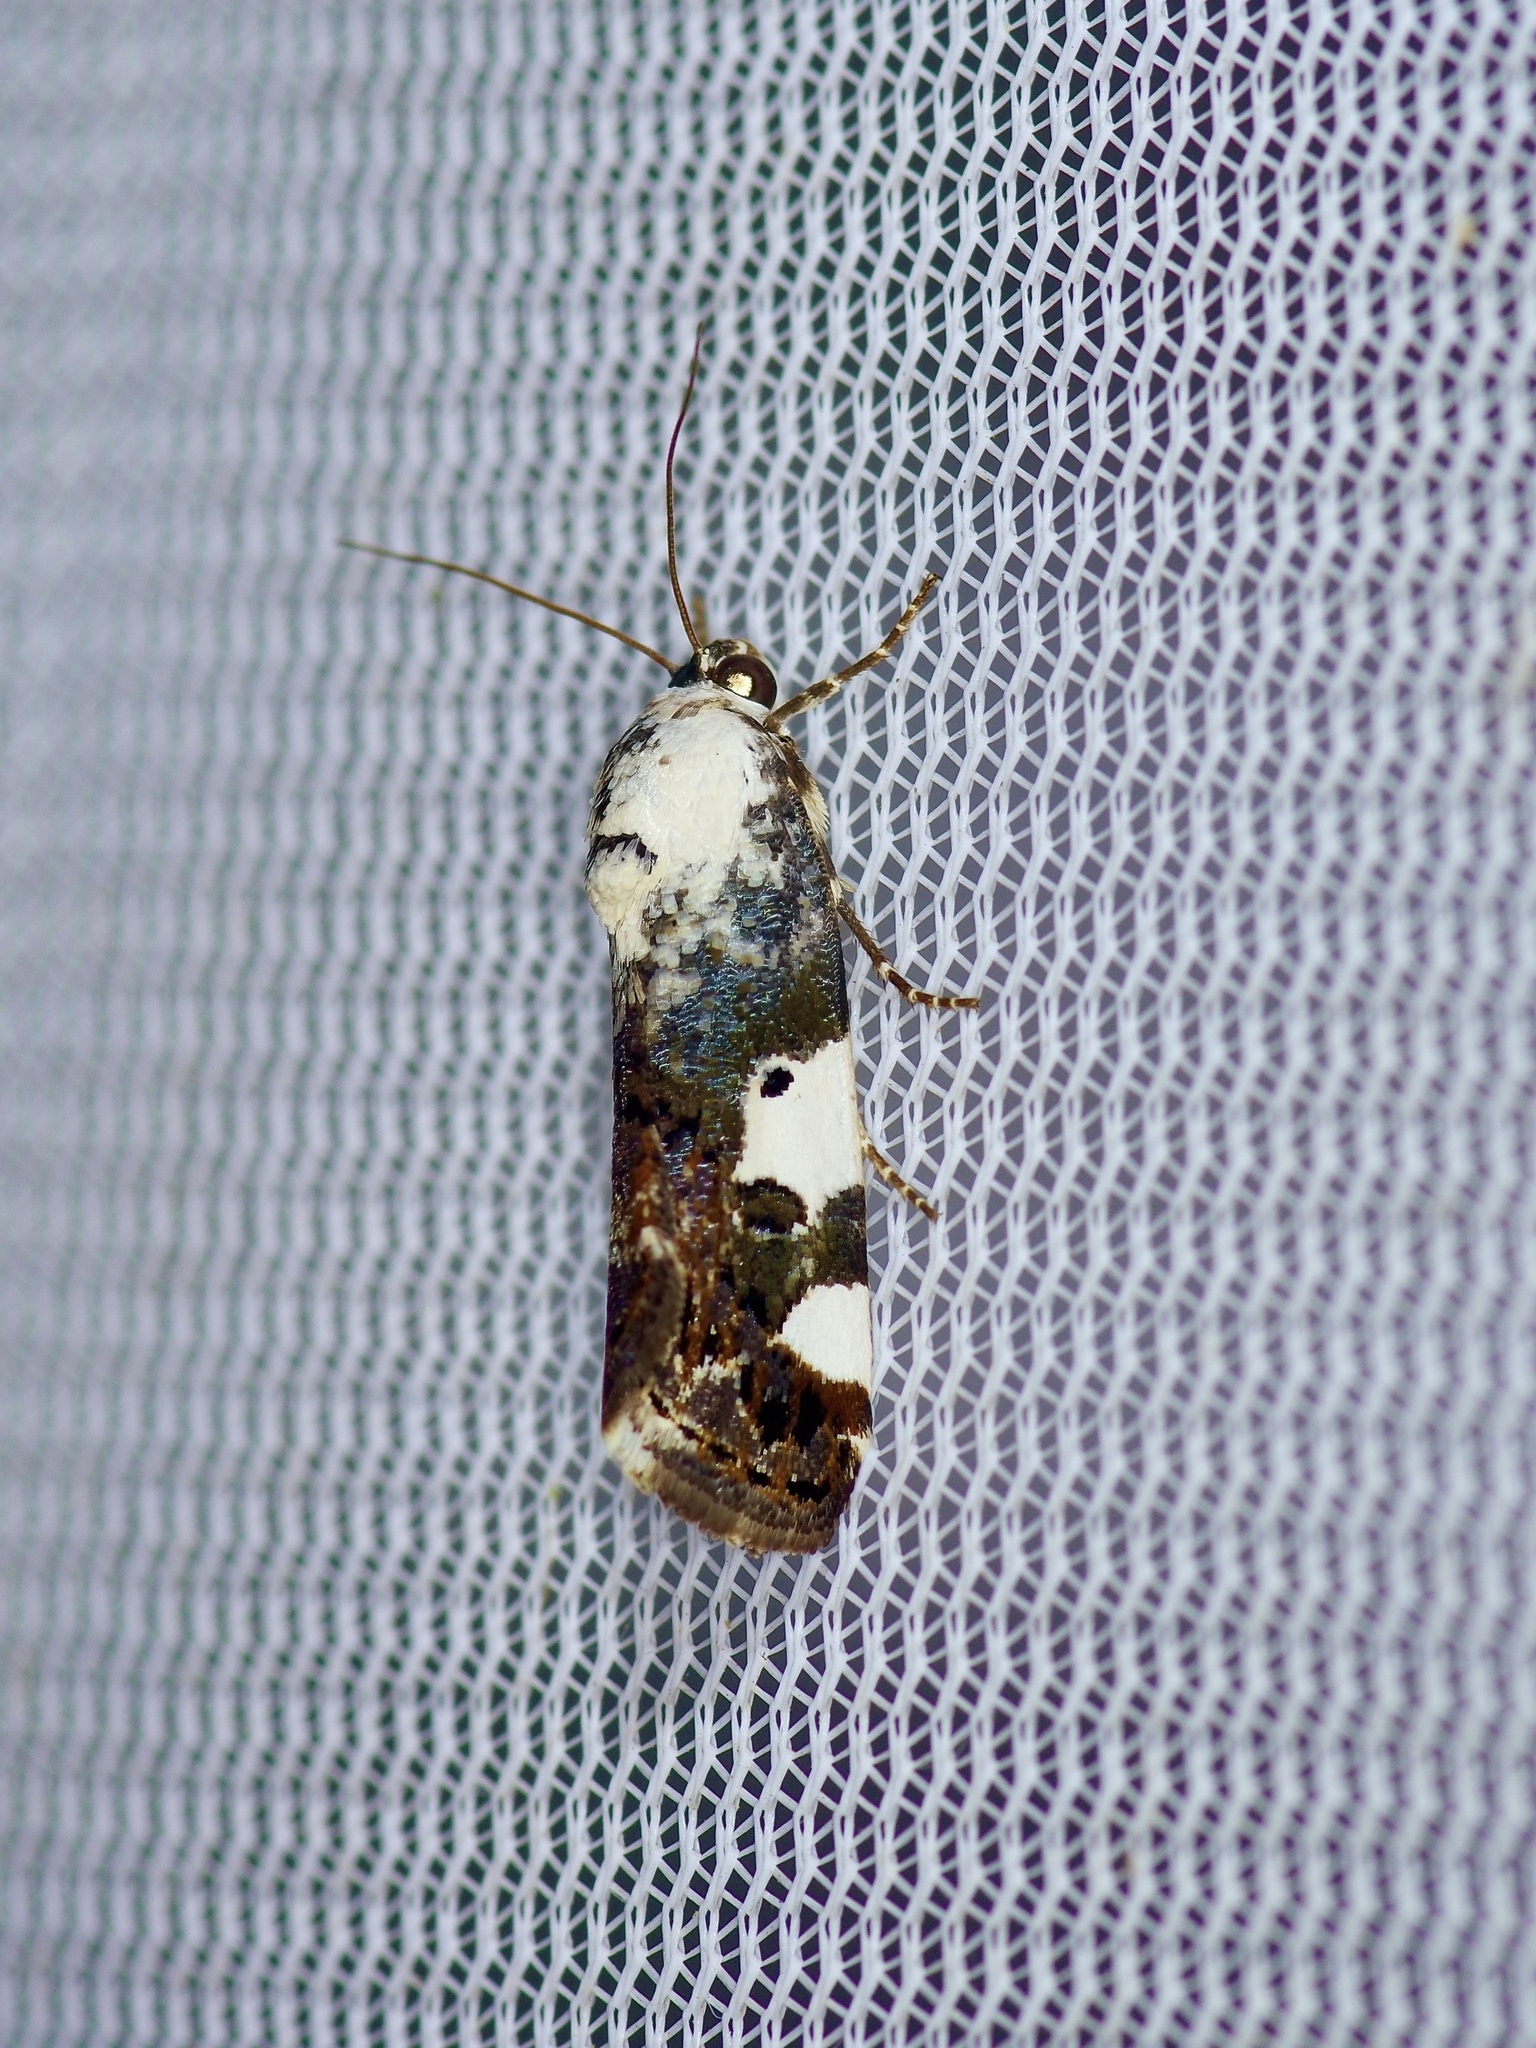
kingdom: Animalia
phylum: Arthropoda
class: Insecta
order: Lepidoptera
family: Noctuidae
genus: Acontia
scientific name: Acontia aprica
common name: Nun
